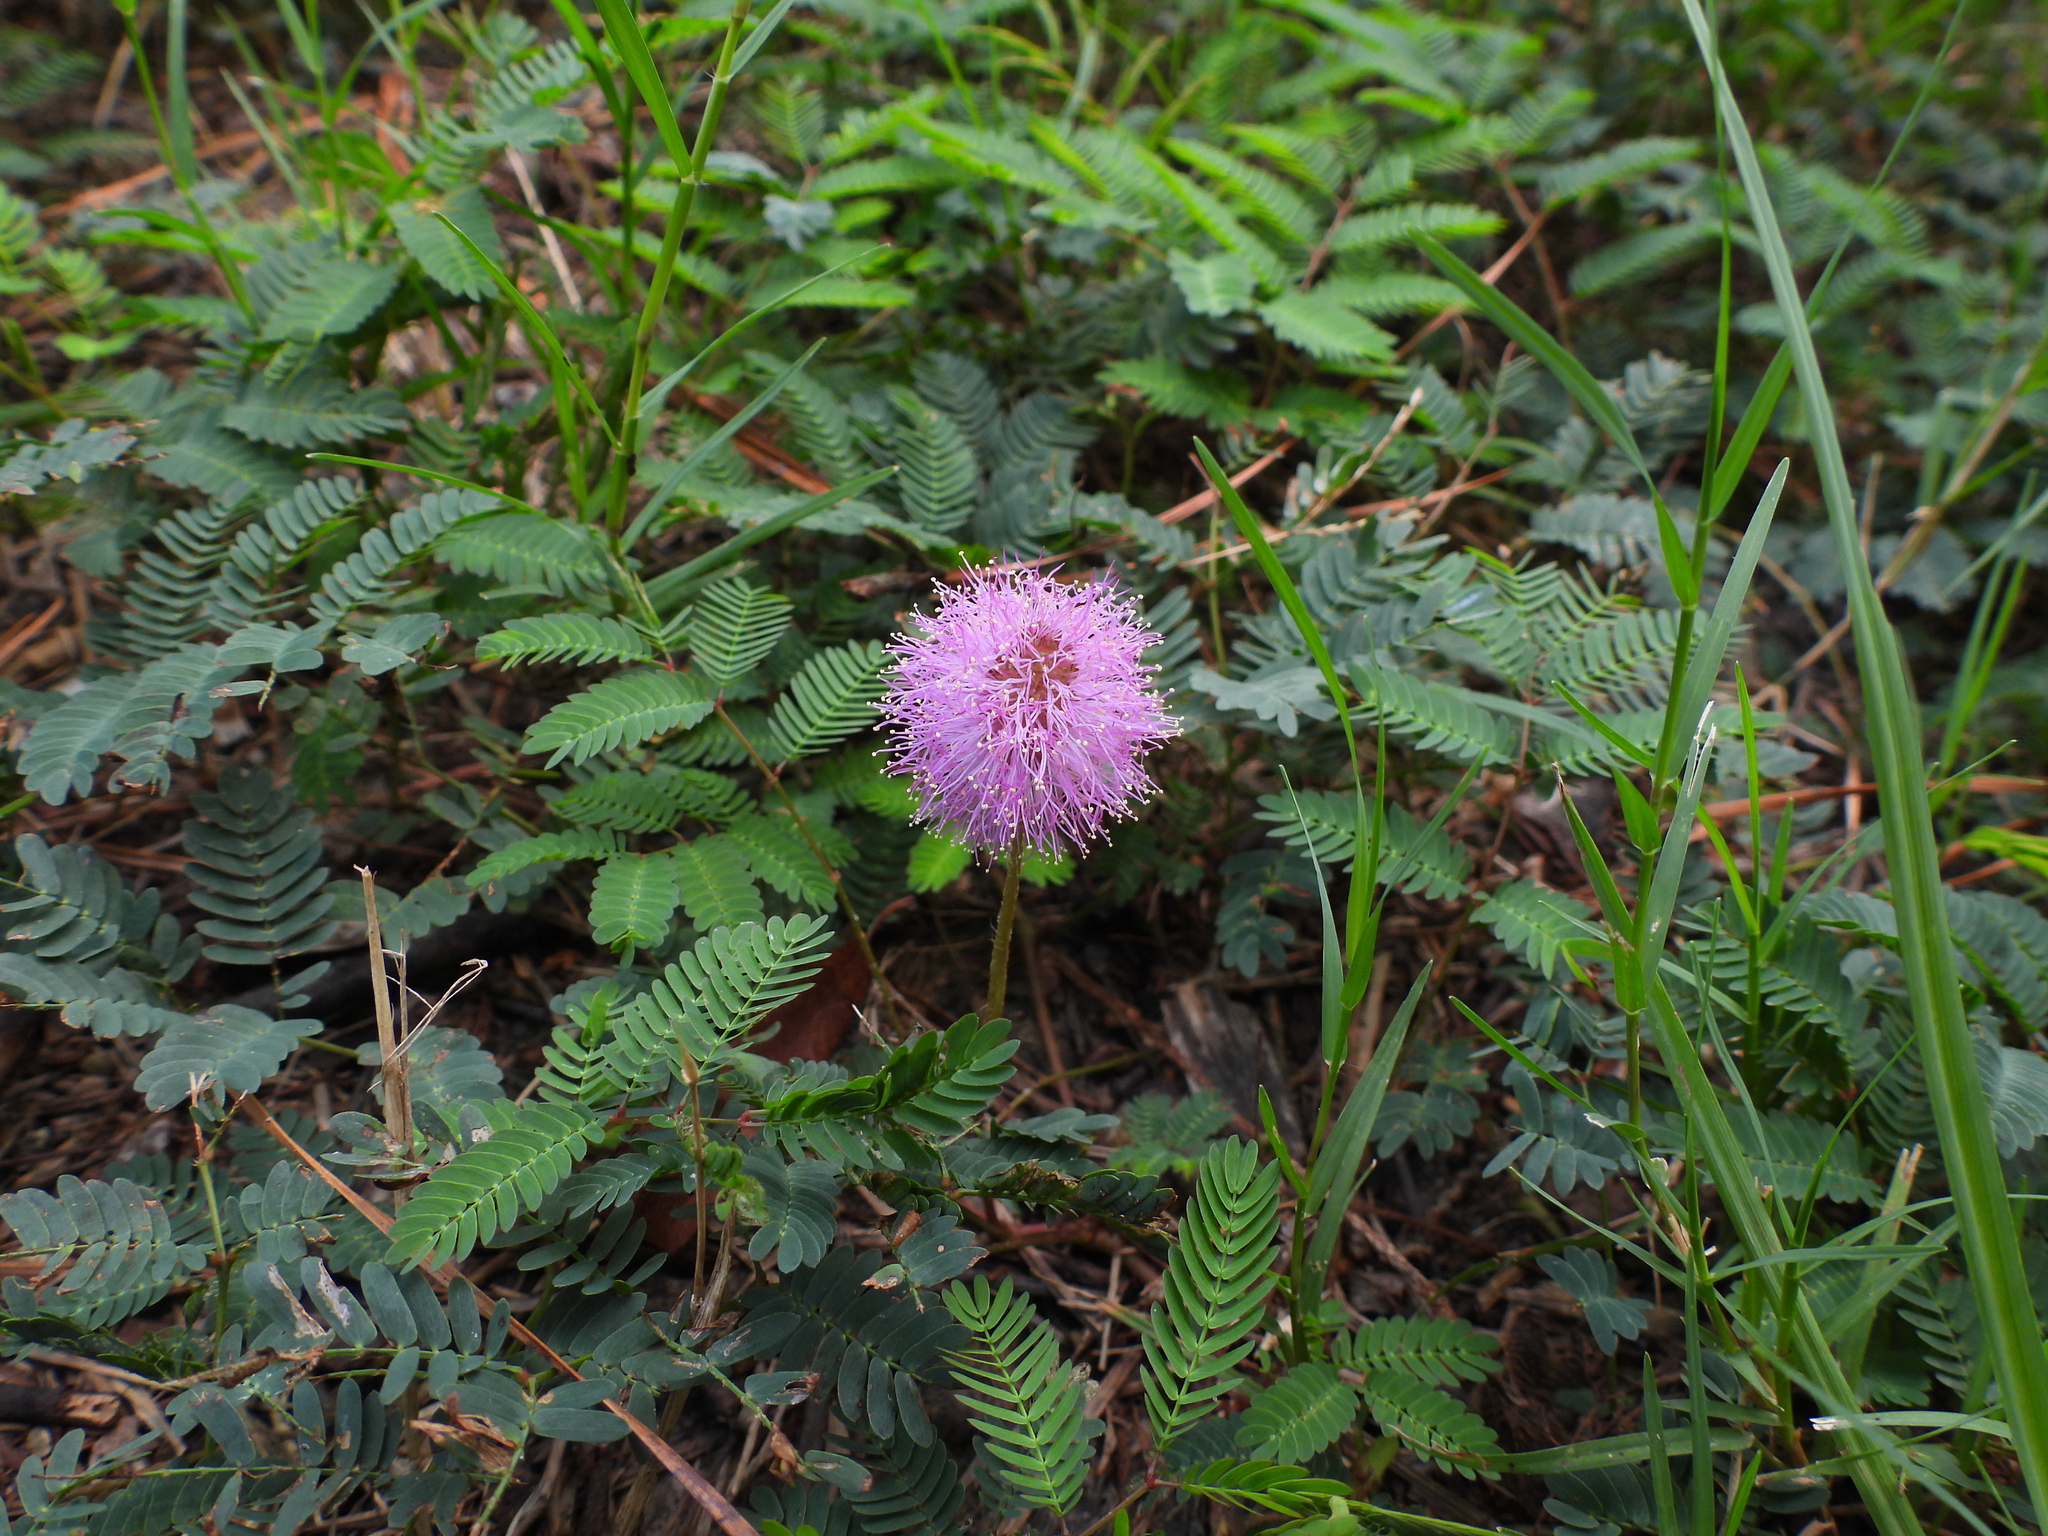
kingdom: Plantae
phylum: Tracheophyta
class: Magnoliopsida
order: Fabales
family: Fabaceae
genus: Mimosa
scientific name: Mimosa strigillosa
